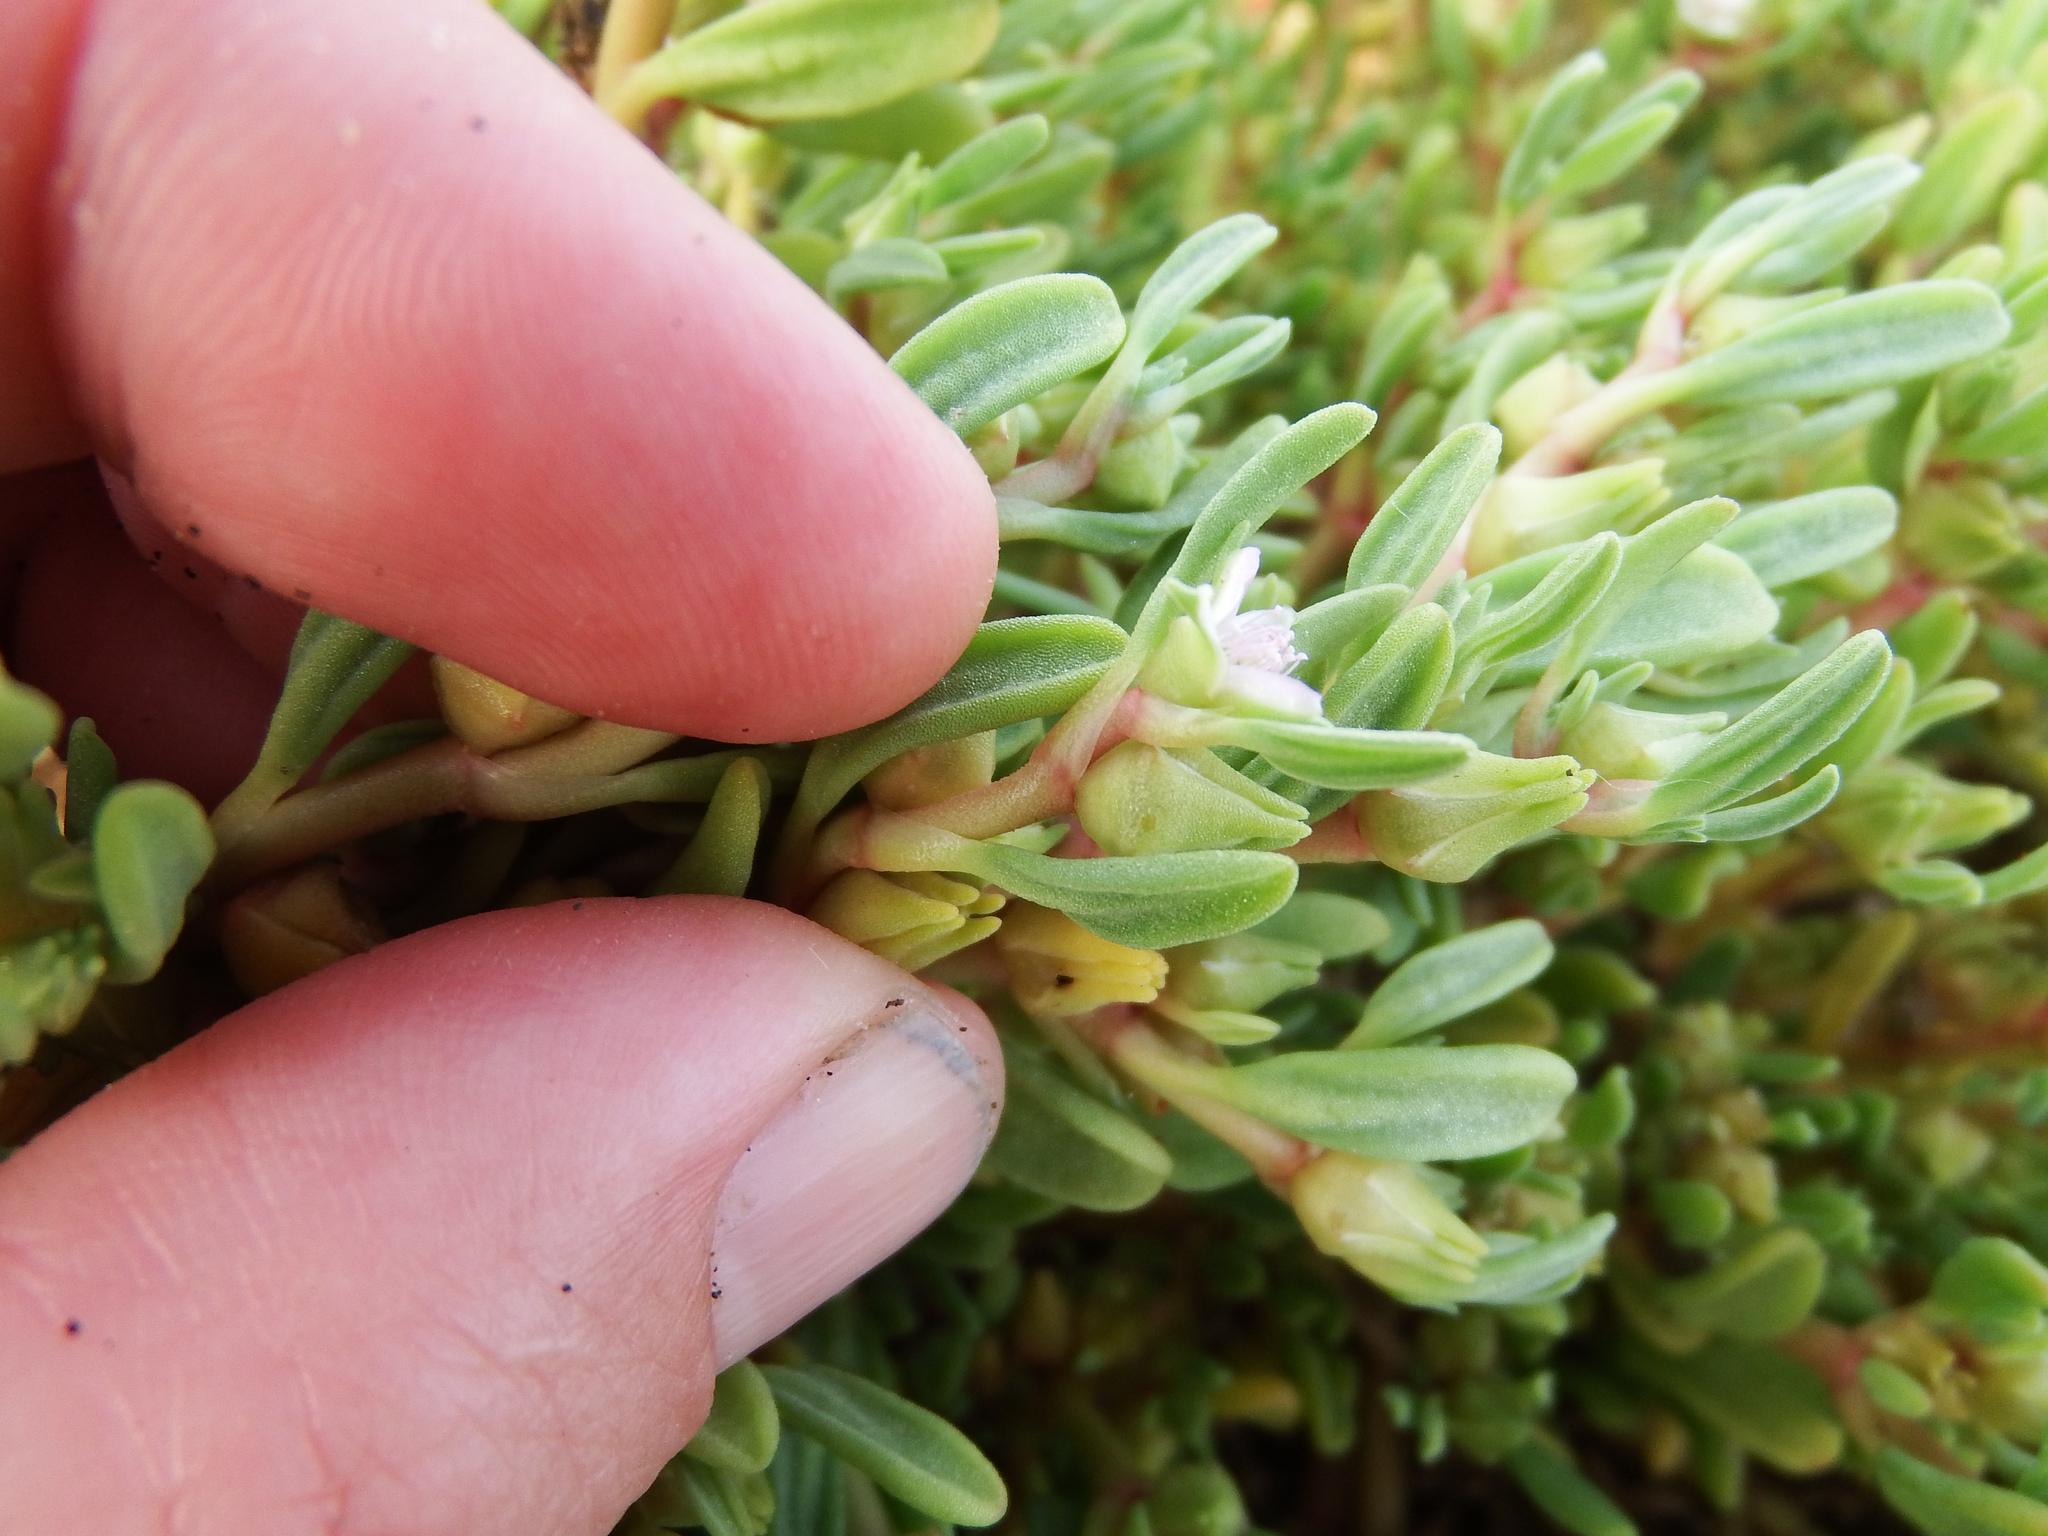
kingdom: Plantae
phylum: Tracheophyta
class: Magnoliopsida
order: Caryophyllales
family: Aizoaceae
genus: Sesuvium
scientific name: Sesuvium portulacastrum
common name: Sea-purslane
